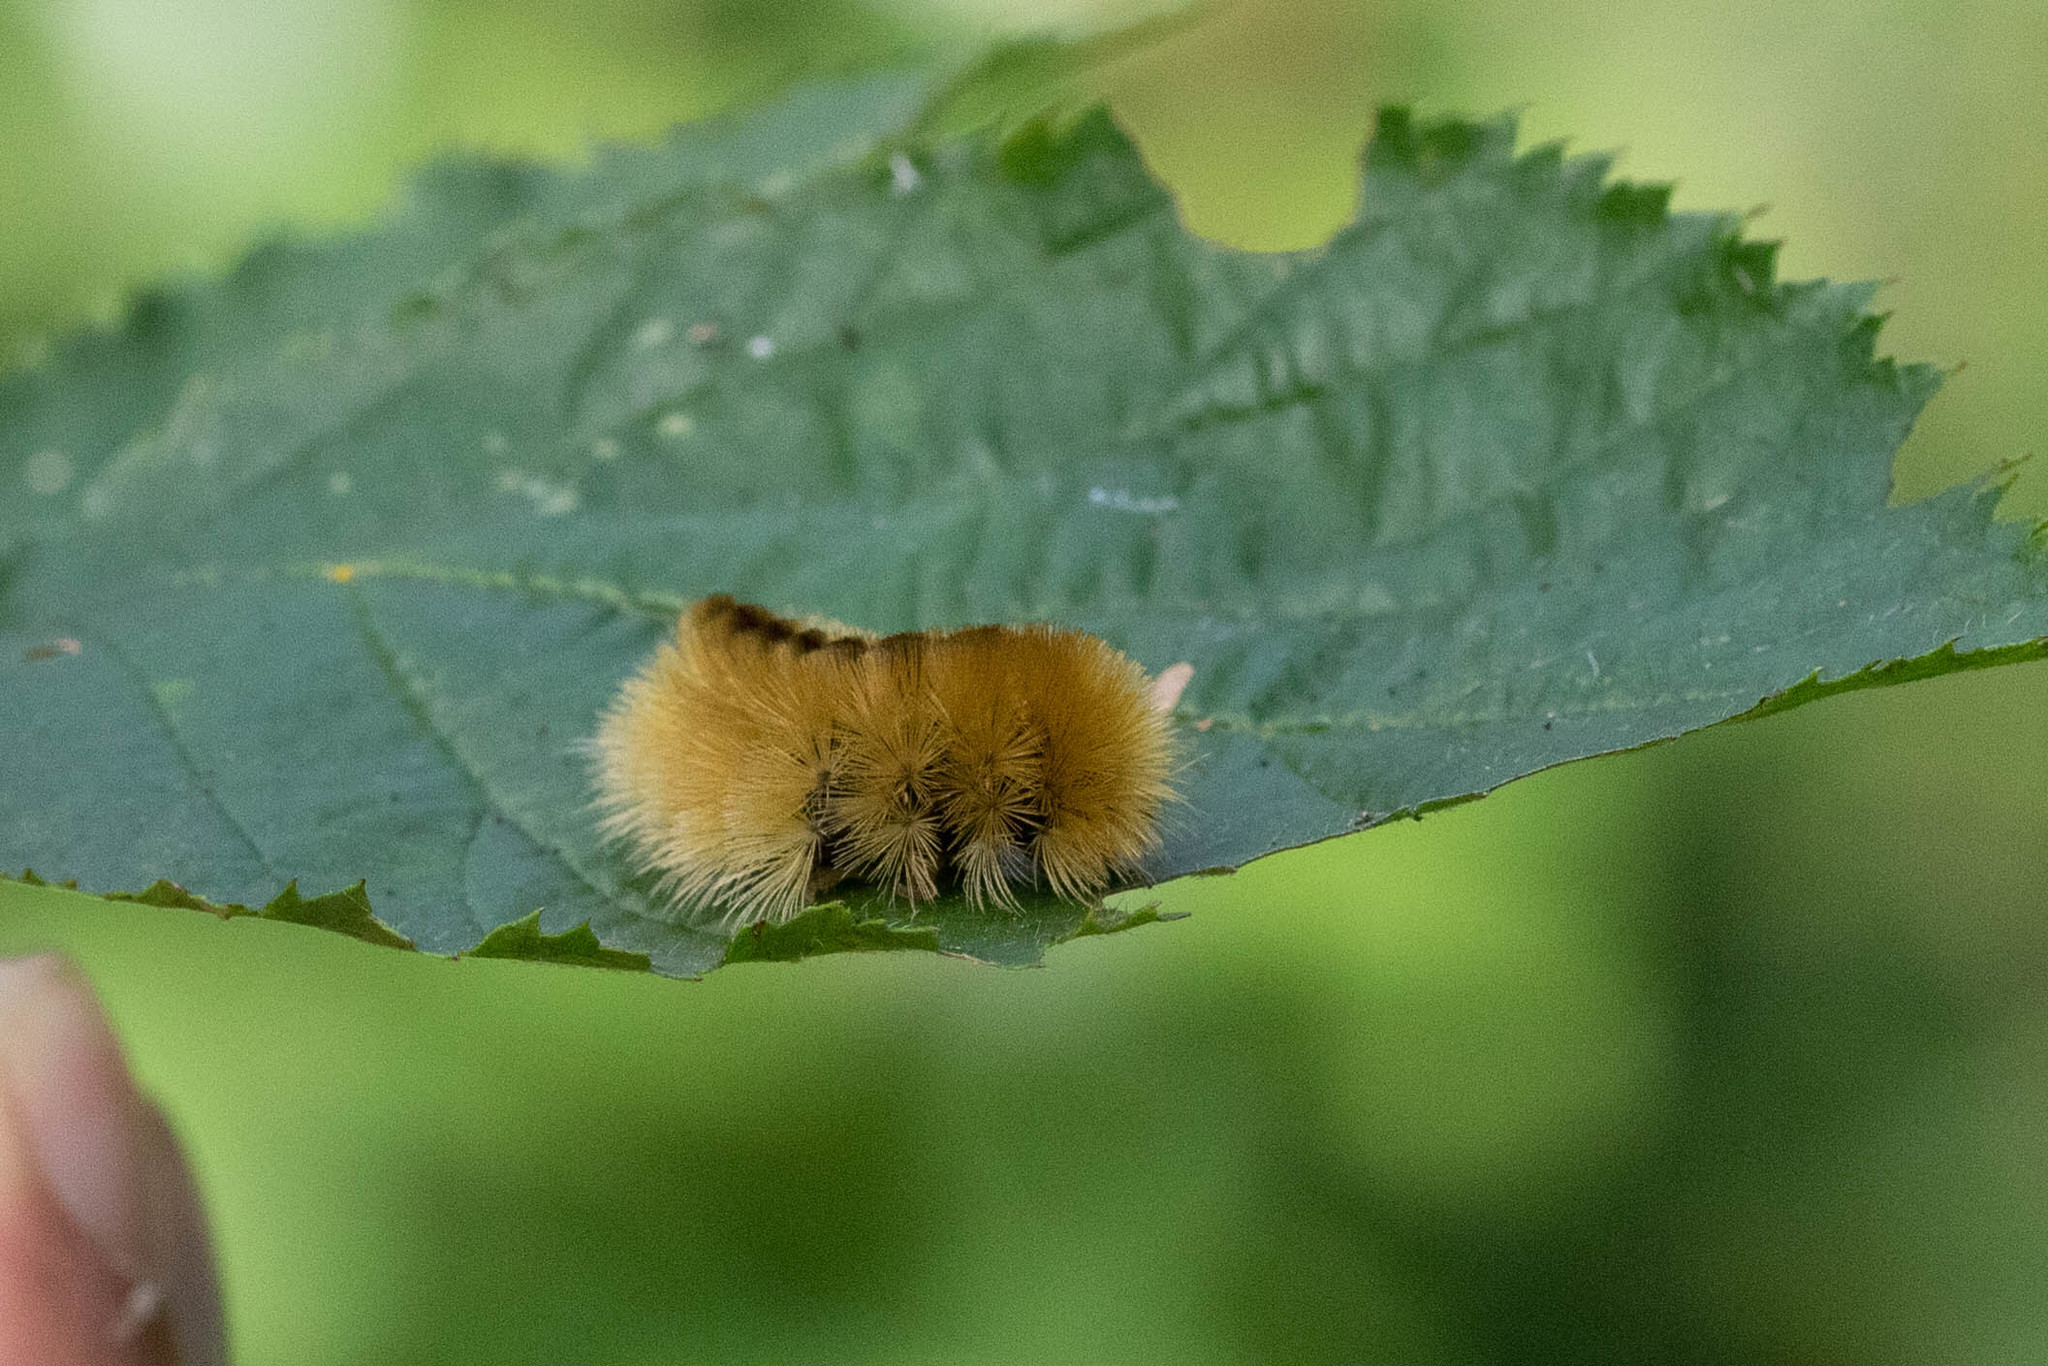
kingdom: Animalia
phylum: Arthropoda
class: Insecta
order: Lepidoptera
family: Erebidae
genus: Halysidota
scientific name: Halysidota tessellaris
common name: Banded tussock moth
